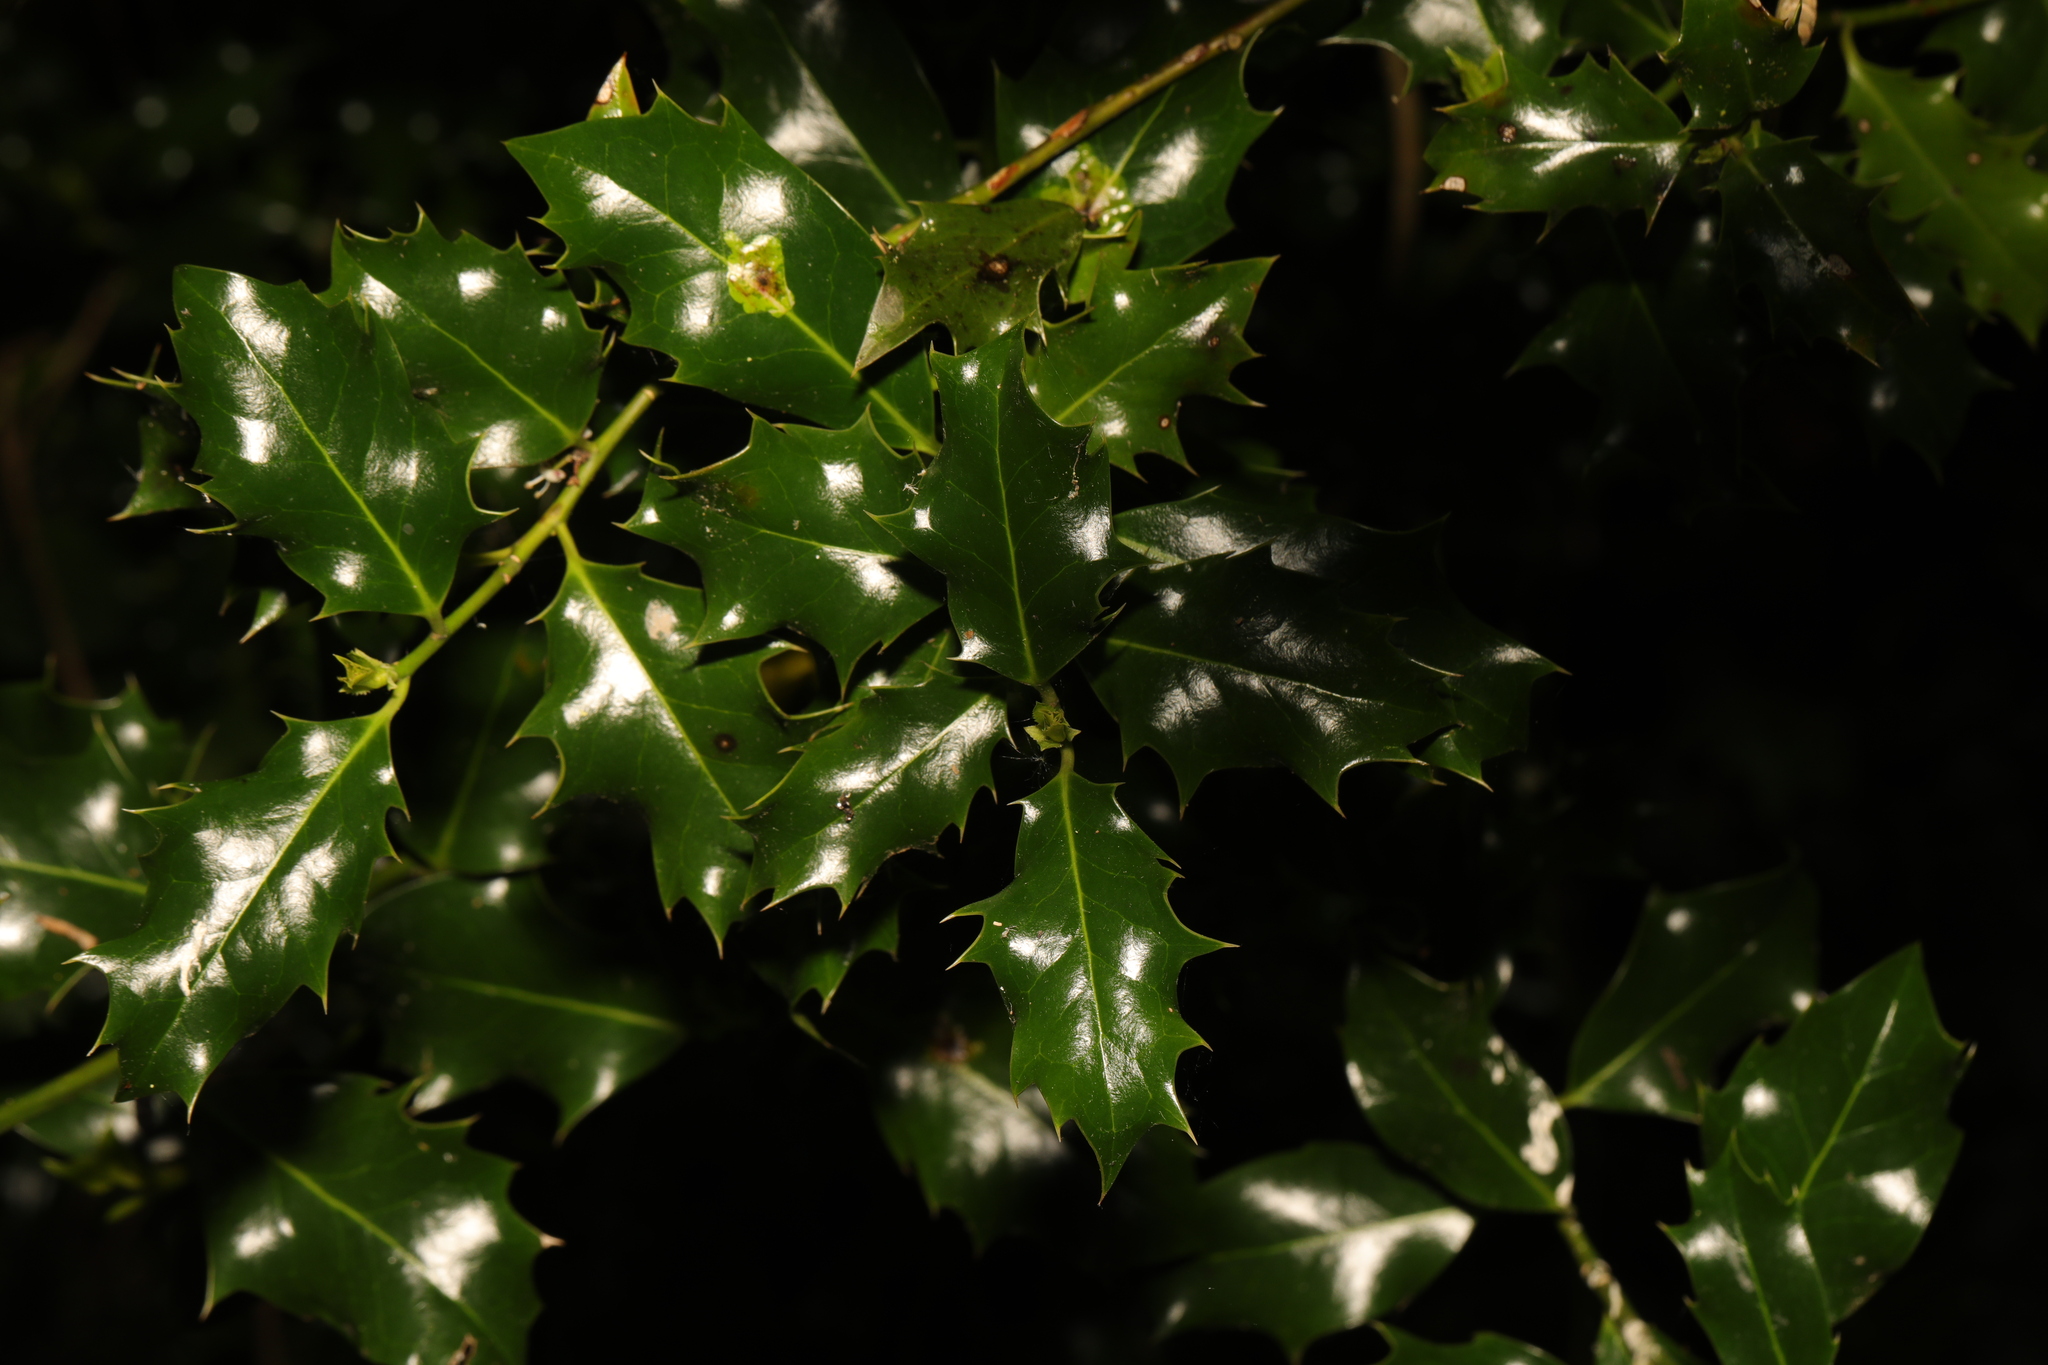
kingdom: Plantae
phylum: Tracheophyta
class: Magnoliopsida
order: Aquifoliales
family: Aquifoliaceae
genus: Ilex
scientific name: Ilex aquifolium
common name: English holly
